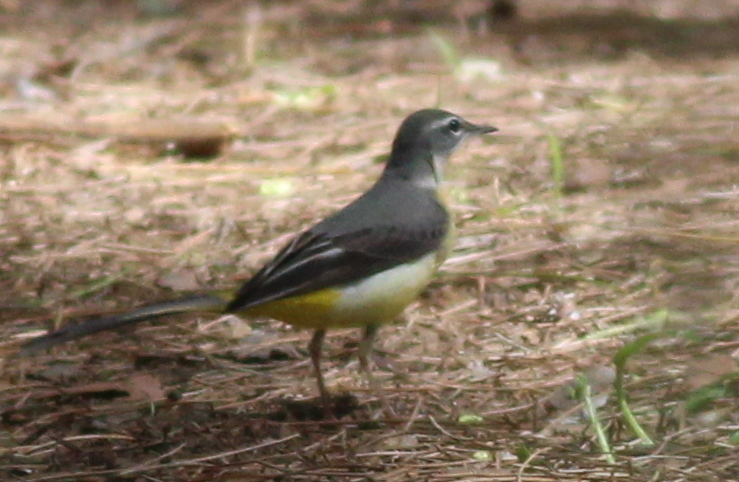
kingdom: Animalia
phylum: Chordata
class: Aves
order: Passeriformes
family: Motacillidae
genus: Motacilla
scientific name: Motacilla cinerea
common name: Grey wagtail
